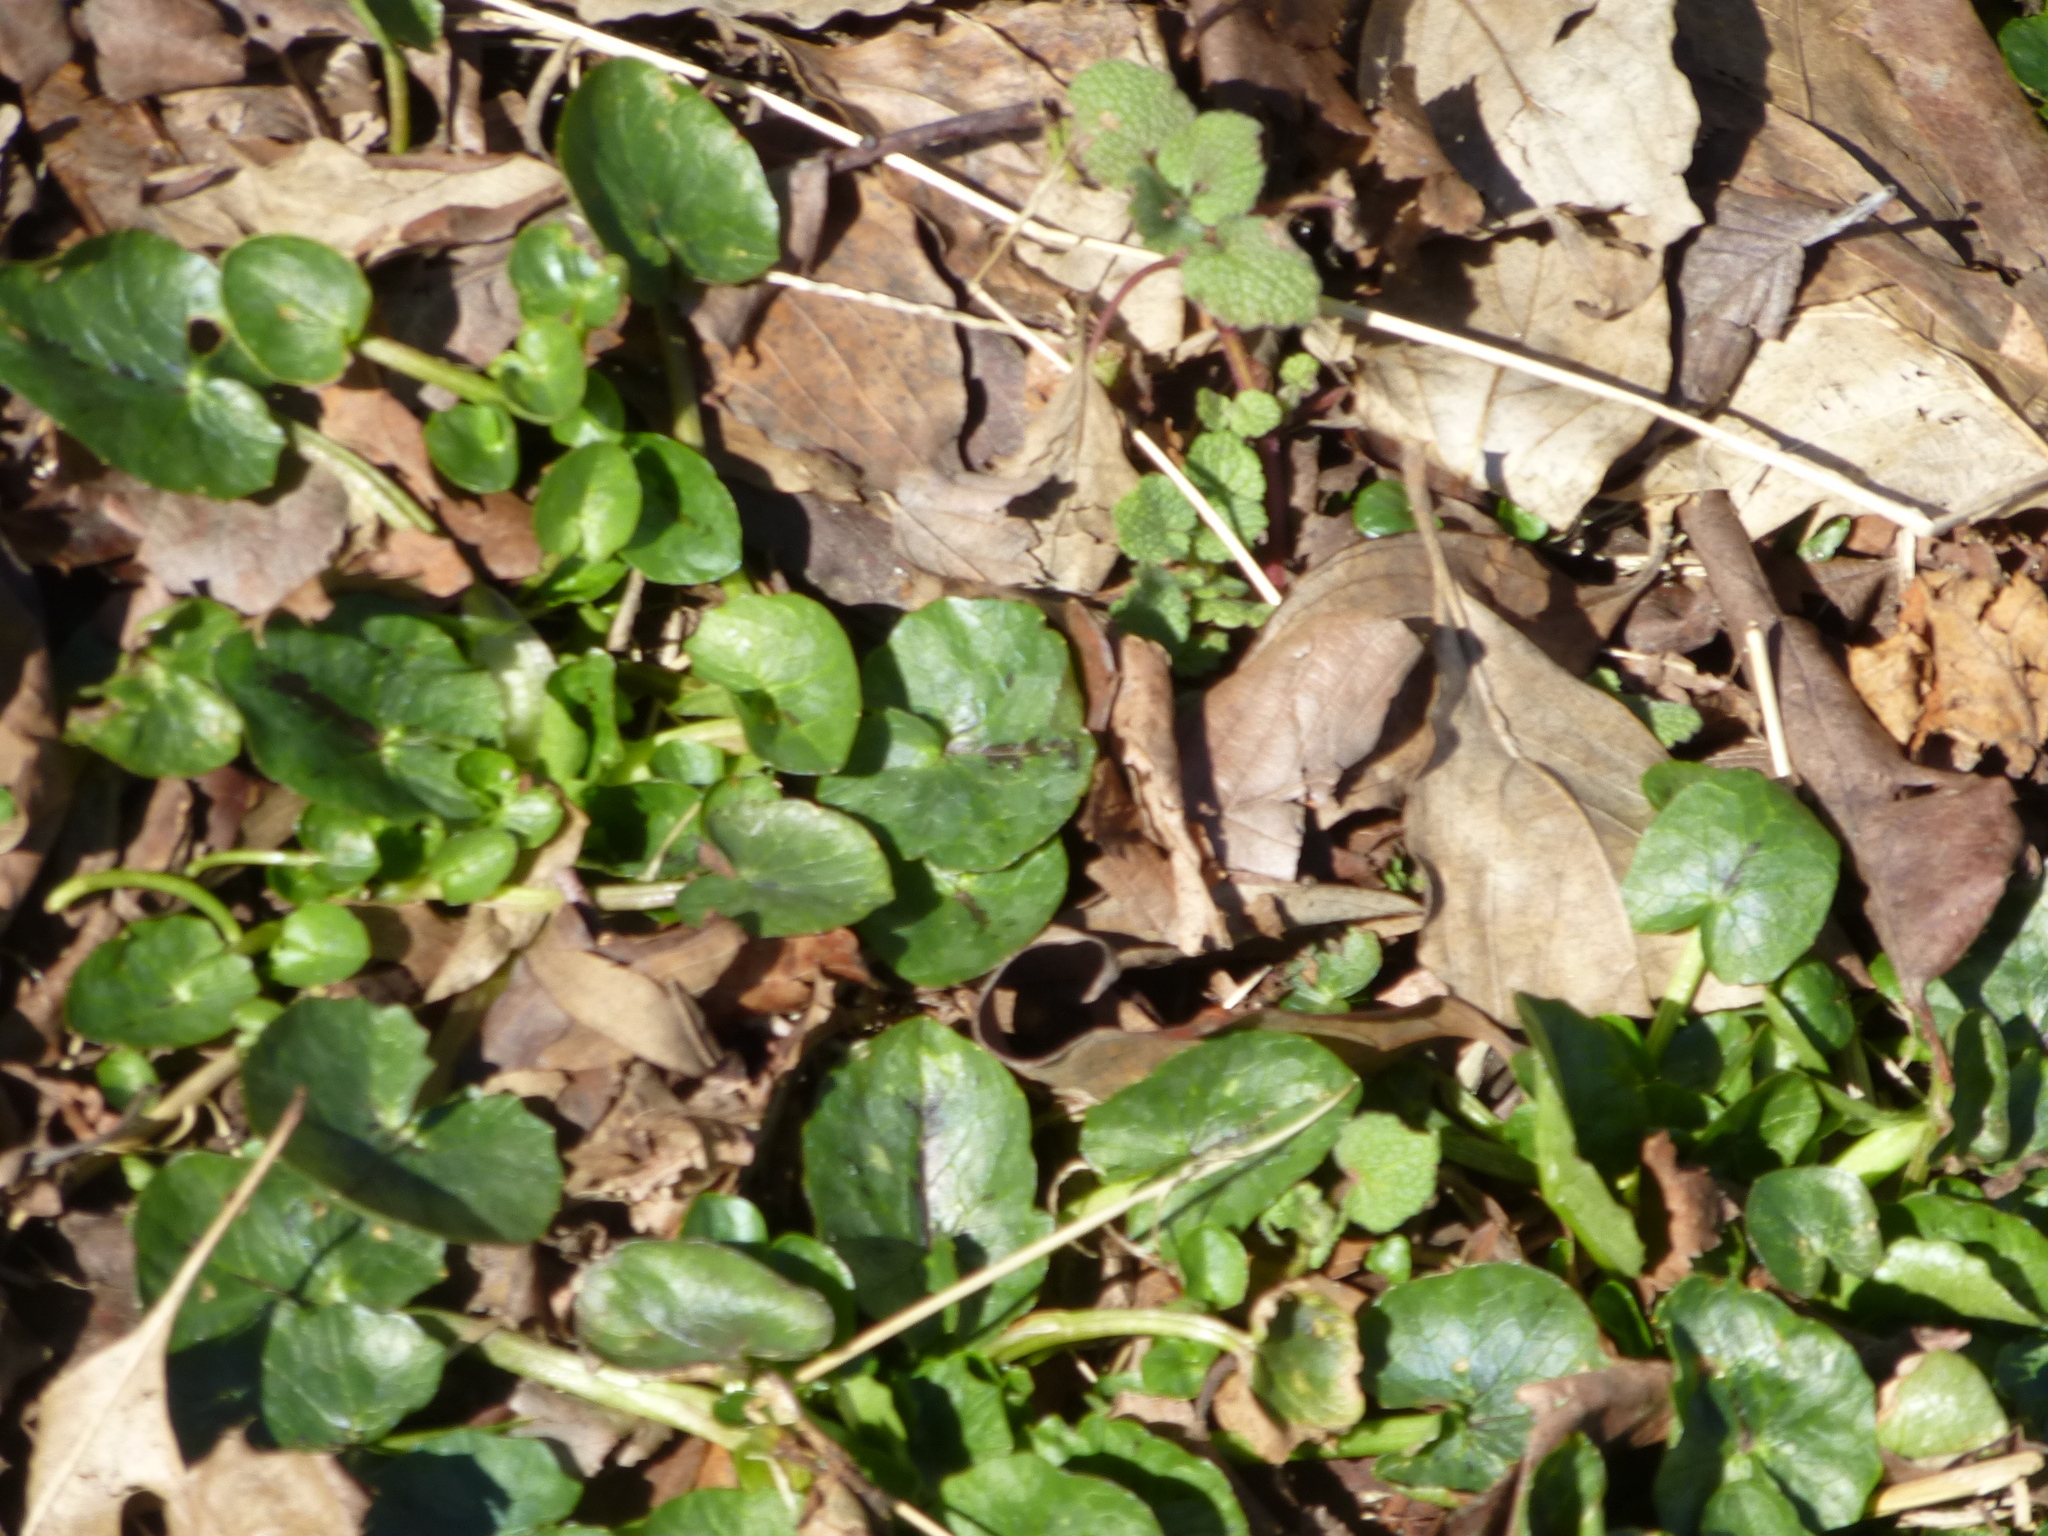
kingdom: Plantae
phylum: Tracheophyta
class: Magnoliopsida
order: Ranunculales
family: Ranunculaceae
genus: Ficaria
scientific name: Ficaria verna
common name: Lesser celandine
